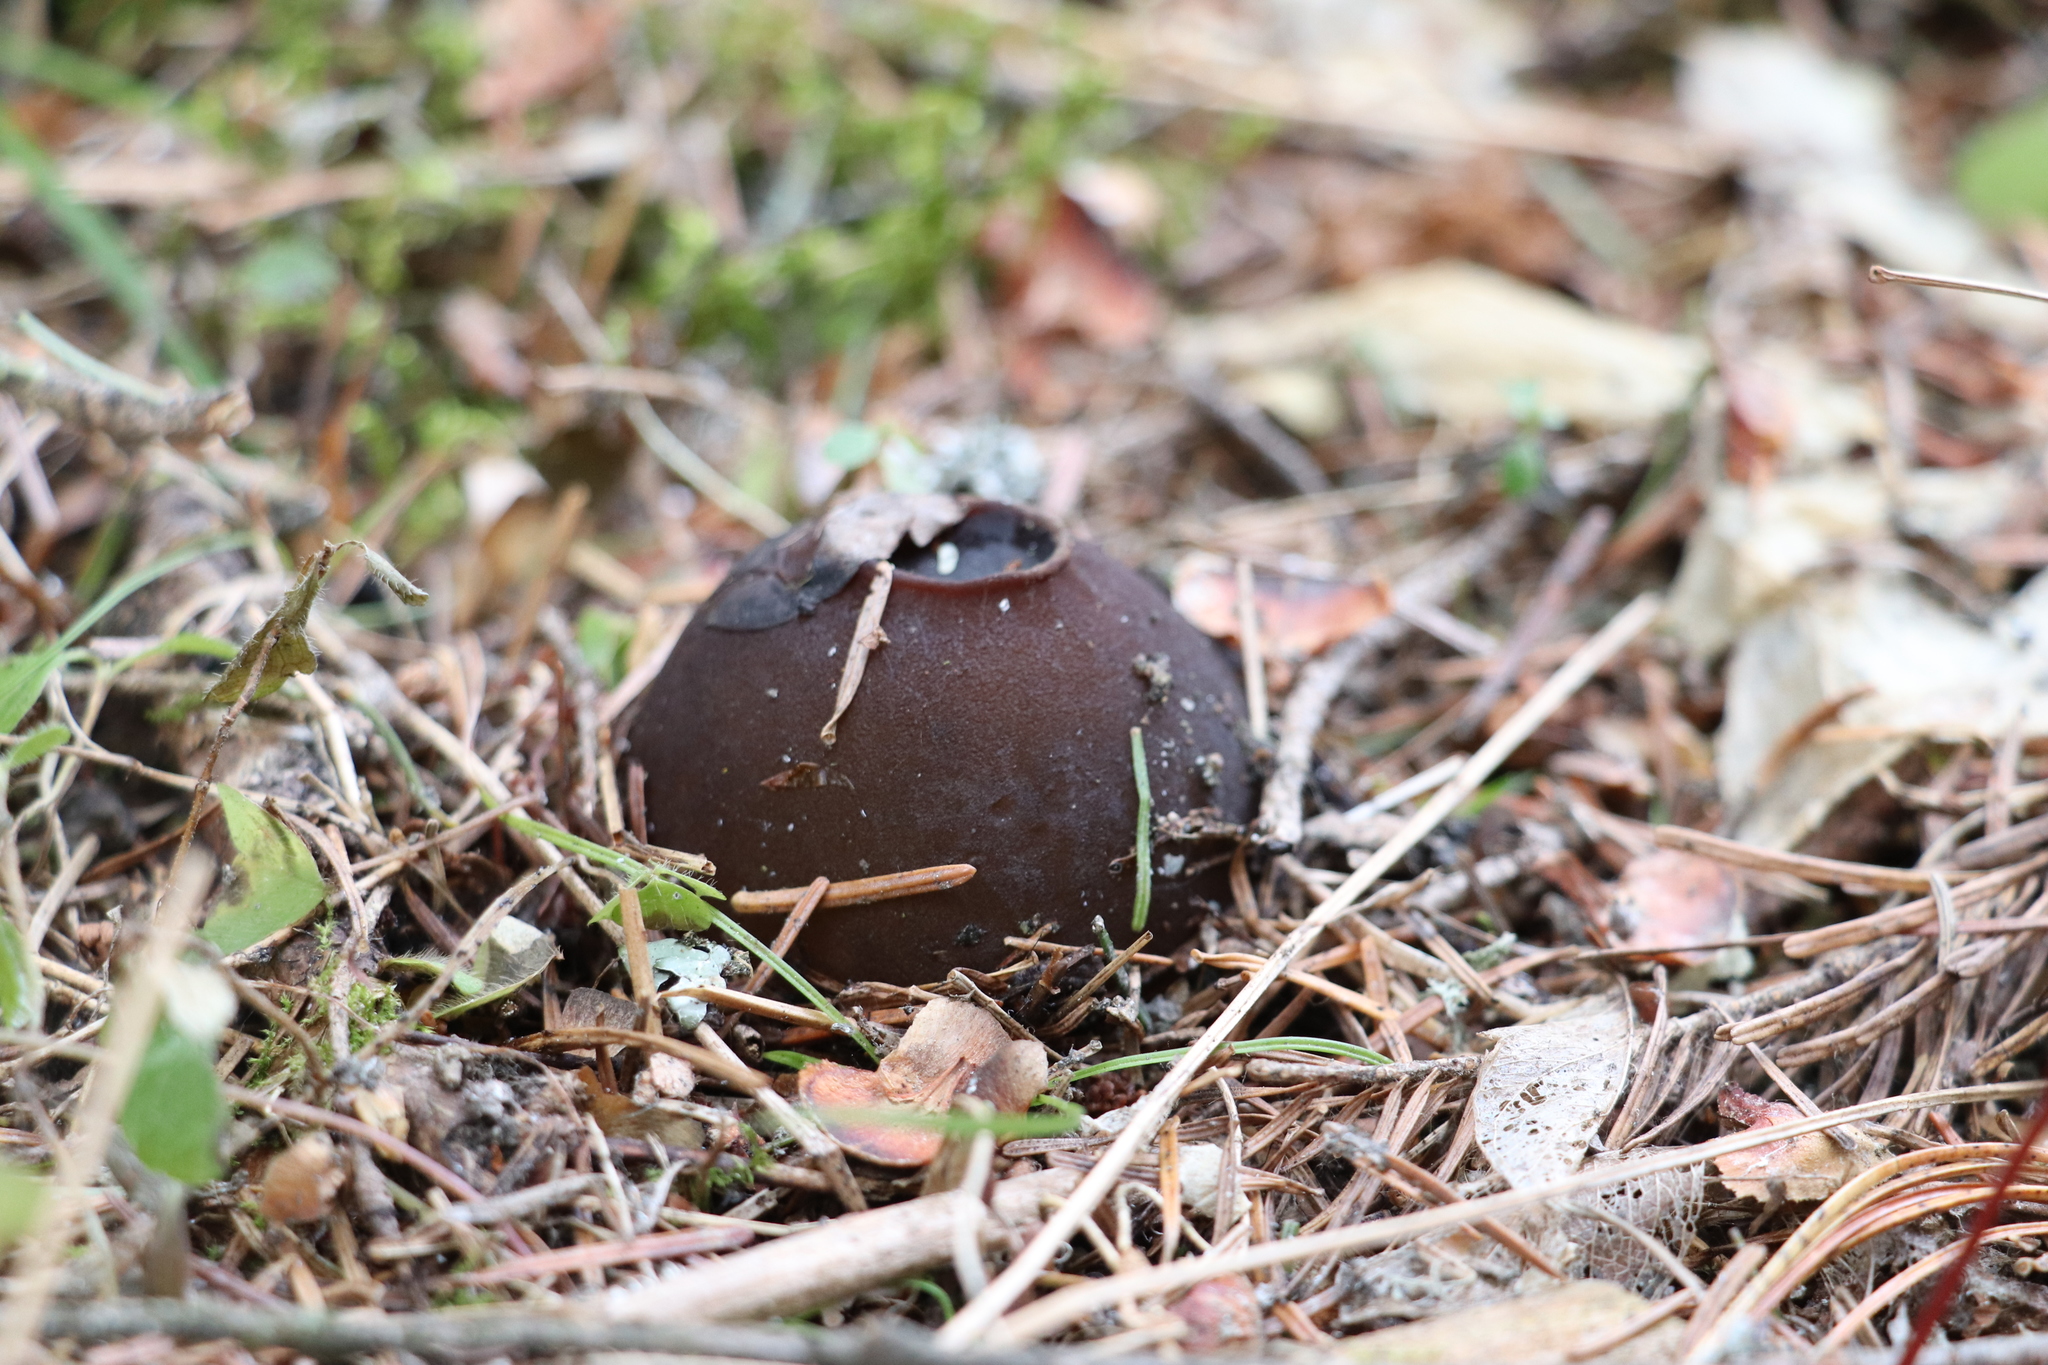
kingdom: Fungi
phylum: Ascomycota
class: Pezizomycetes
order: Pezizales
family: Sarcosomataceae
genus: Sarcosoma
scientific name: Sarcosoma globosum
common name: Charred-pancake cup
